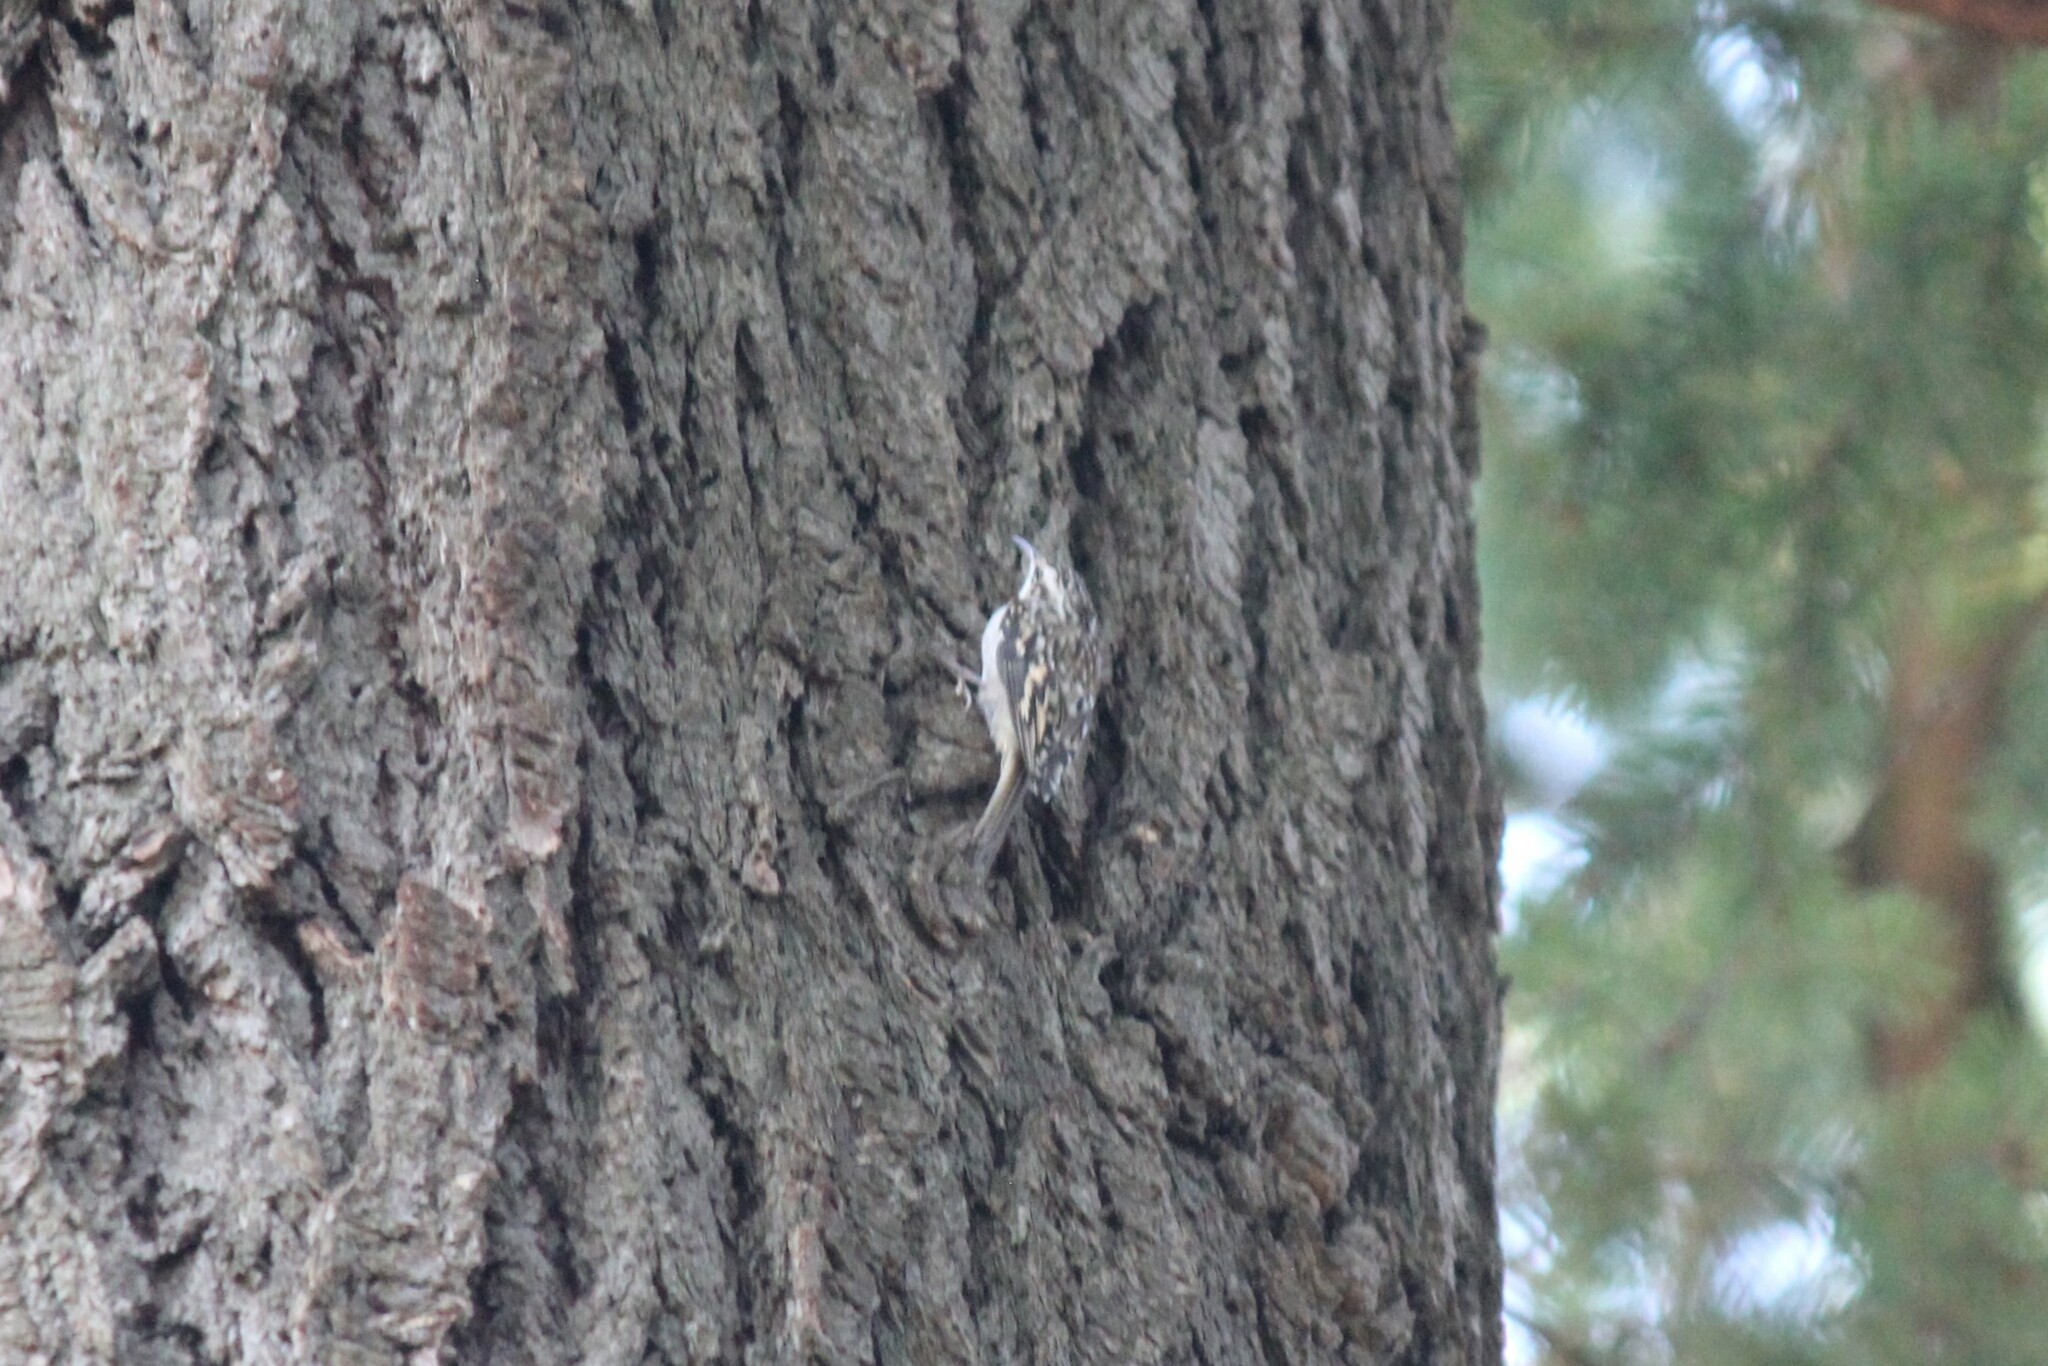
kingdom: Animalia
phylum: Chordata
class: Aves
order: Passeriformes
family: Certhiidae
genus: Certhia
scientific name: Certhia americana
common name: Brown creeper
